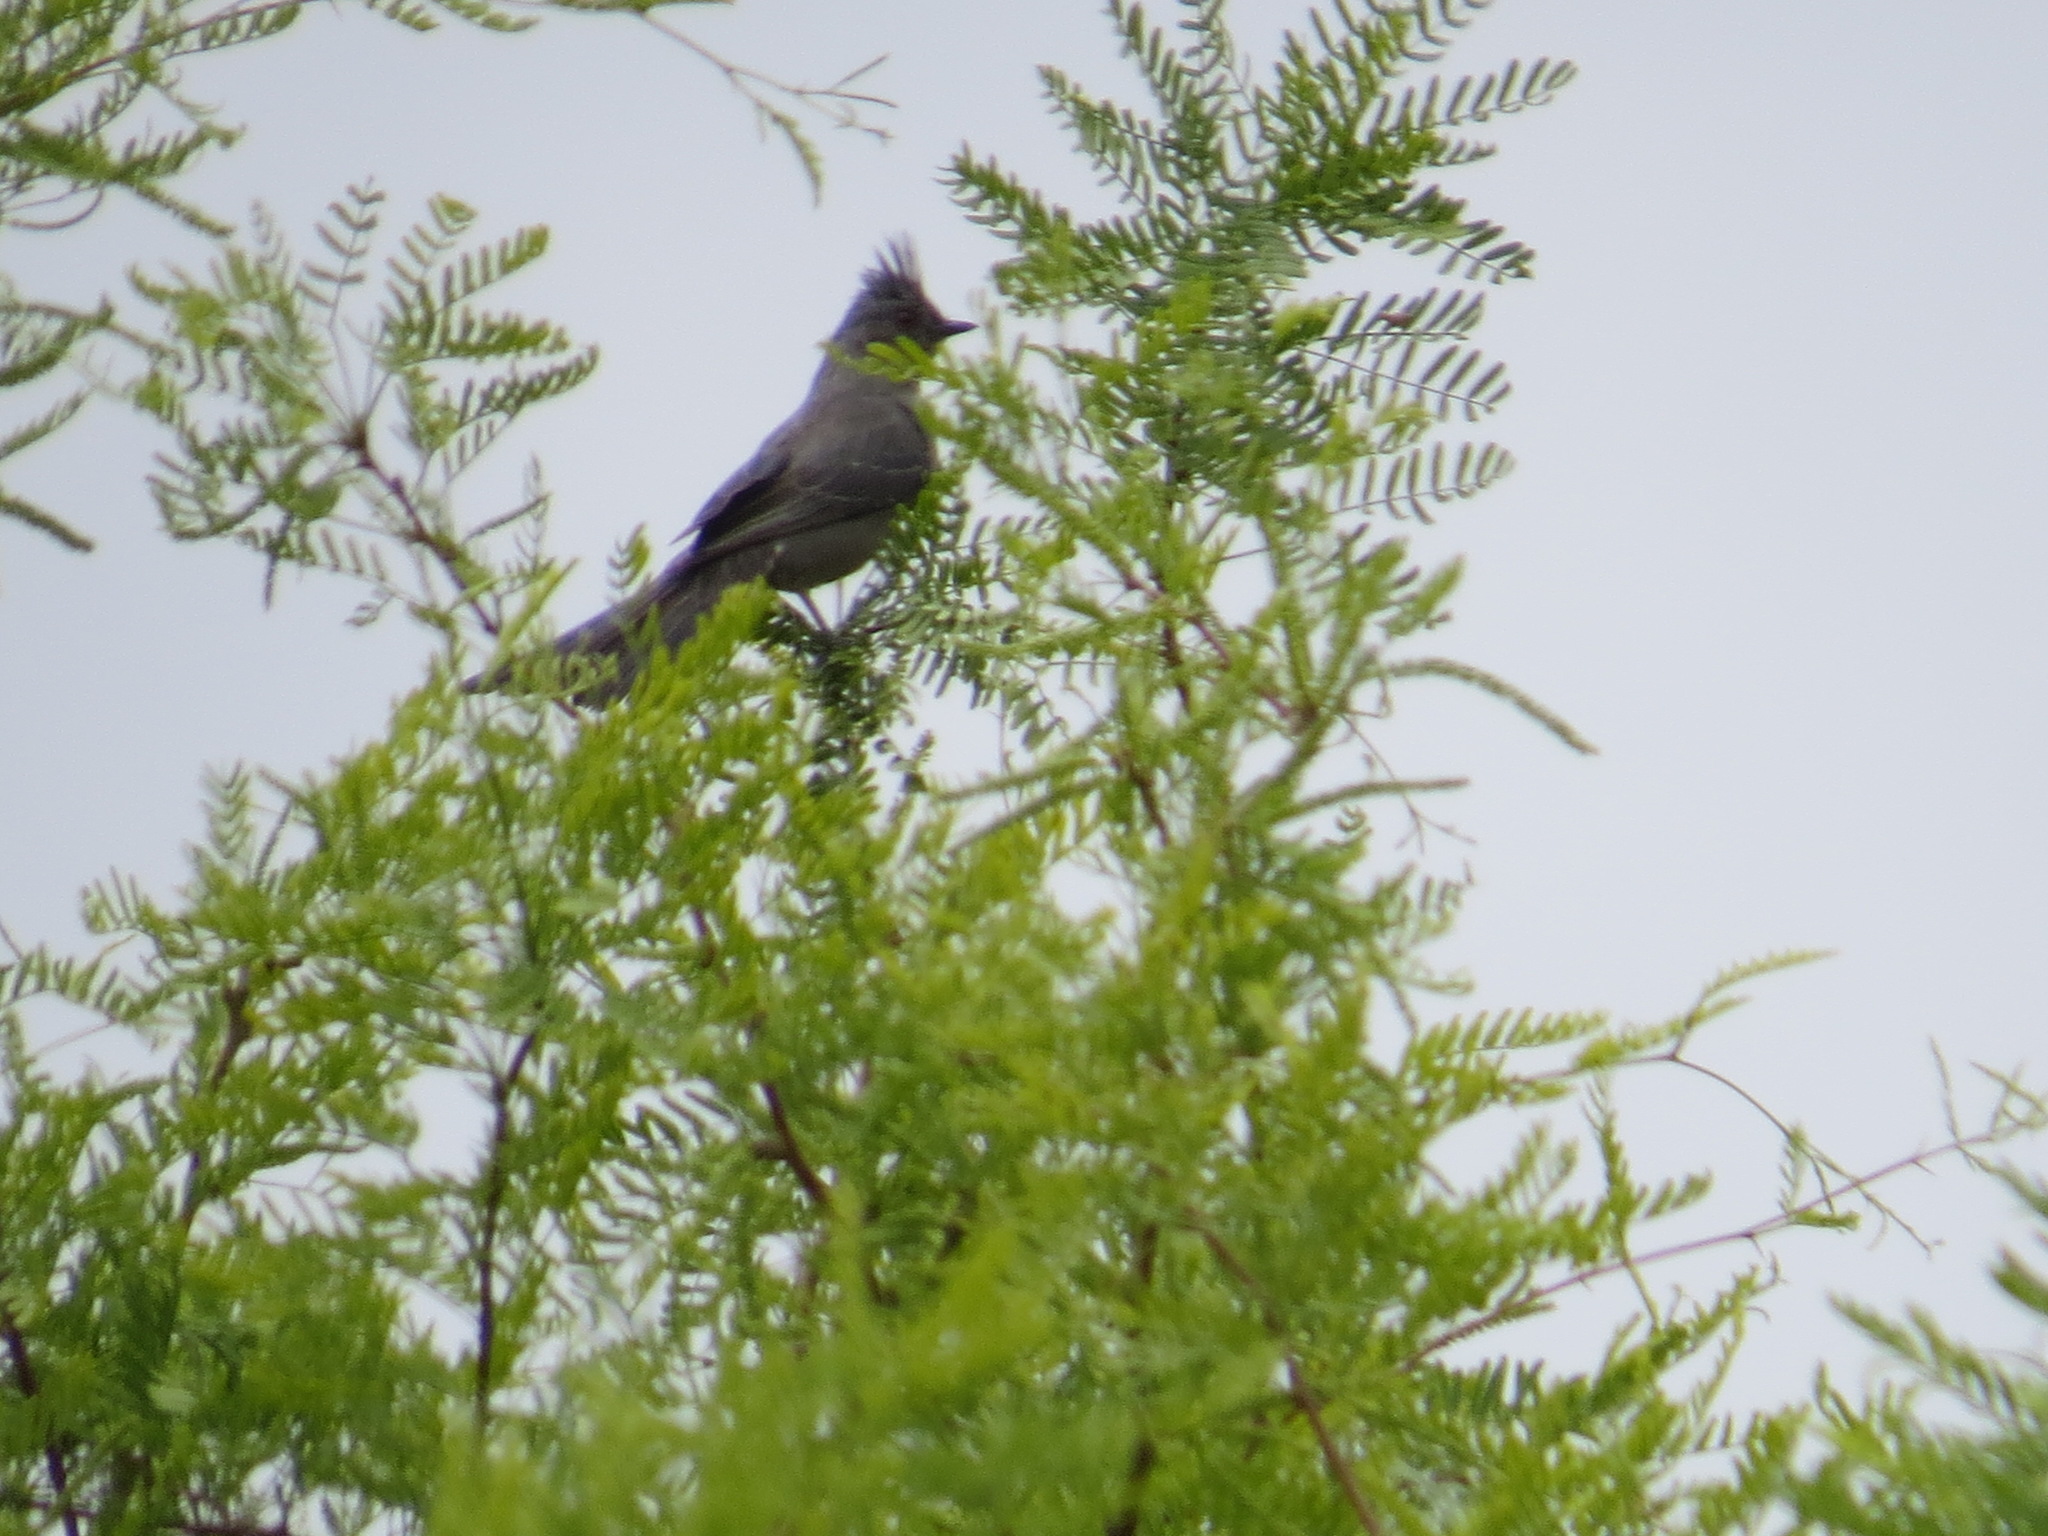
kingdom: Animalia
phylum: Chordata
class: Aves
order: Passeriformes
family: Ptilogonatidae
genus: Phainopepla
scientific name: Phainopepla nitens
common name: Phainopepla
